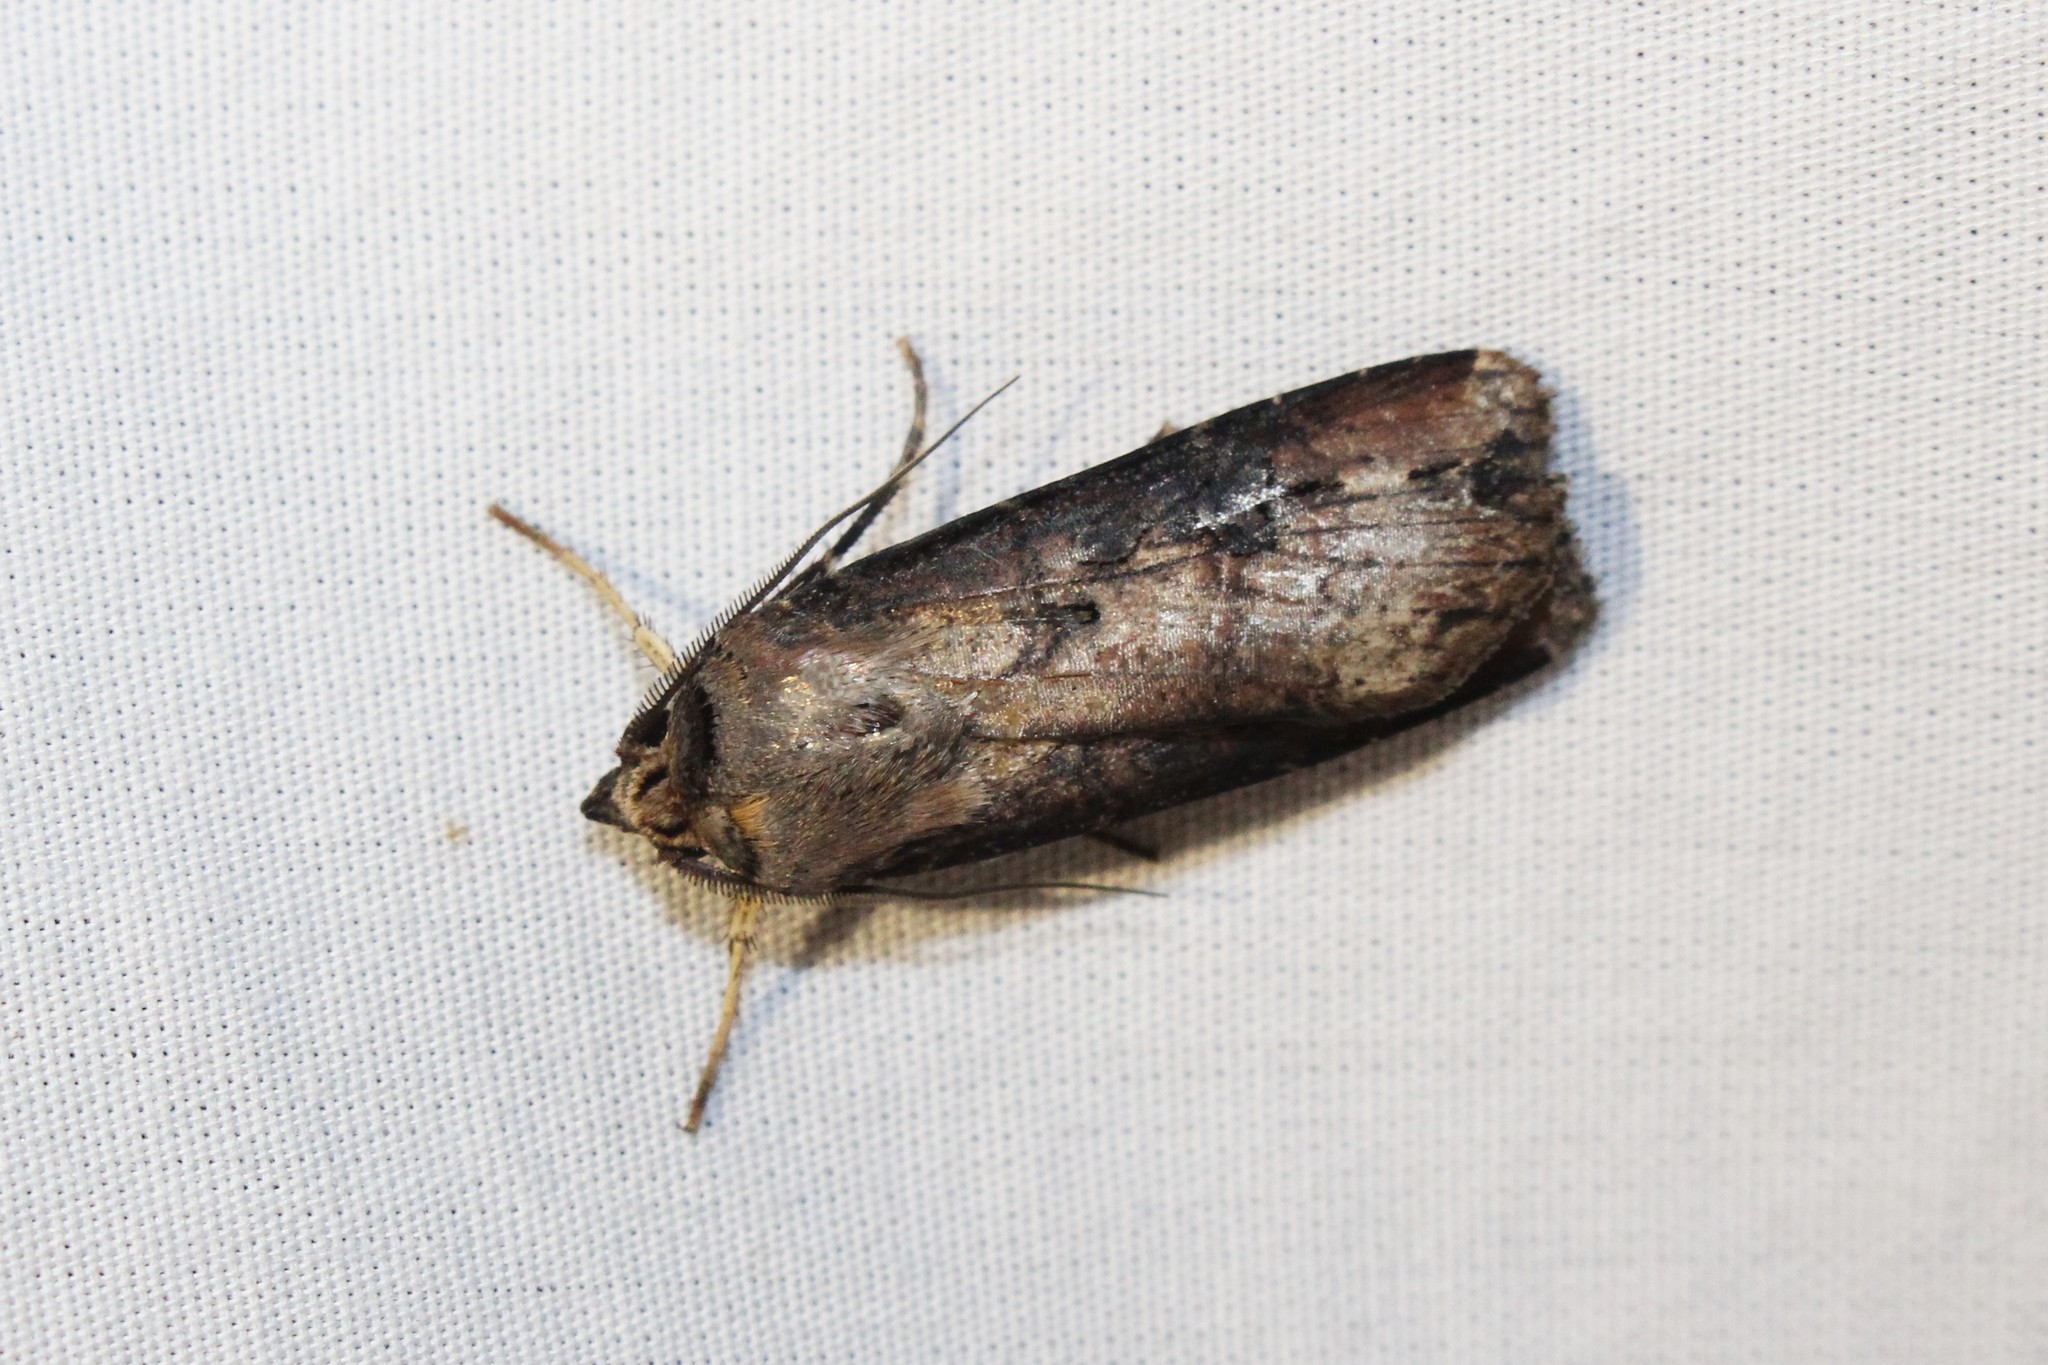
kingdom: Animalia
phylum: Arthropoda
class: Insecta
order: Lepidoptera
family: Noctuidae
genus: Agrotis
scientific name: Agrotis ipsilon
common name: Dark sword-grass
